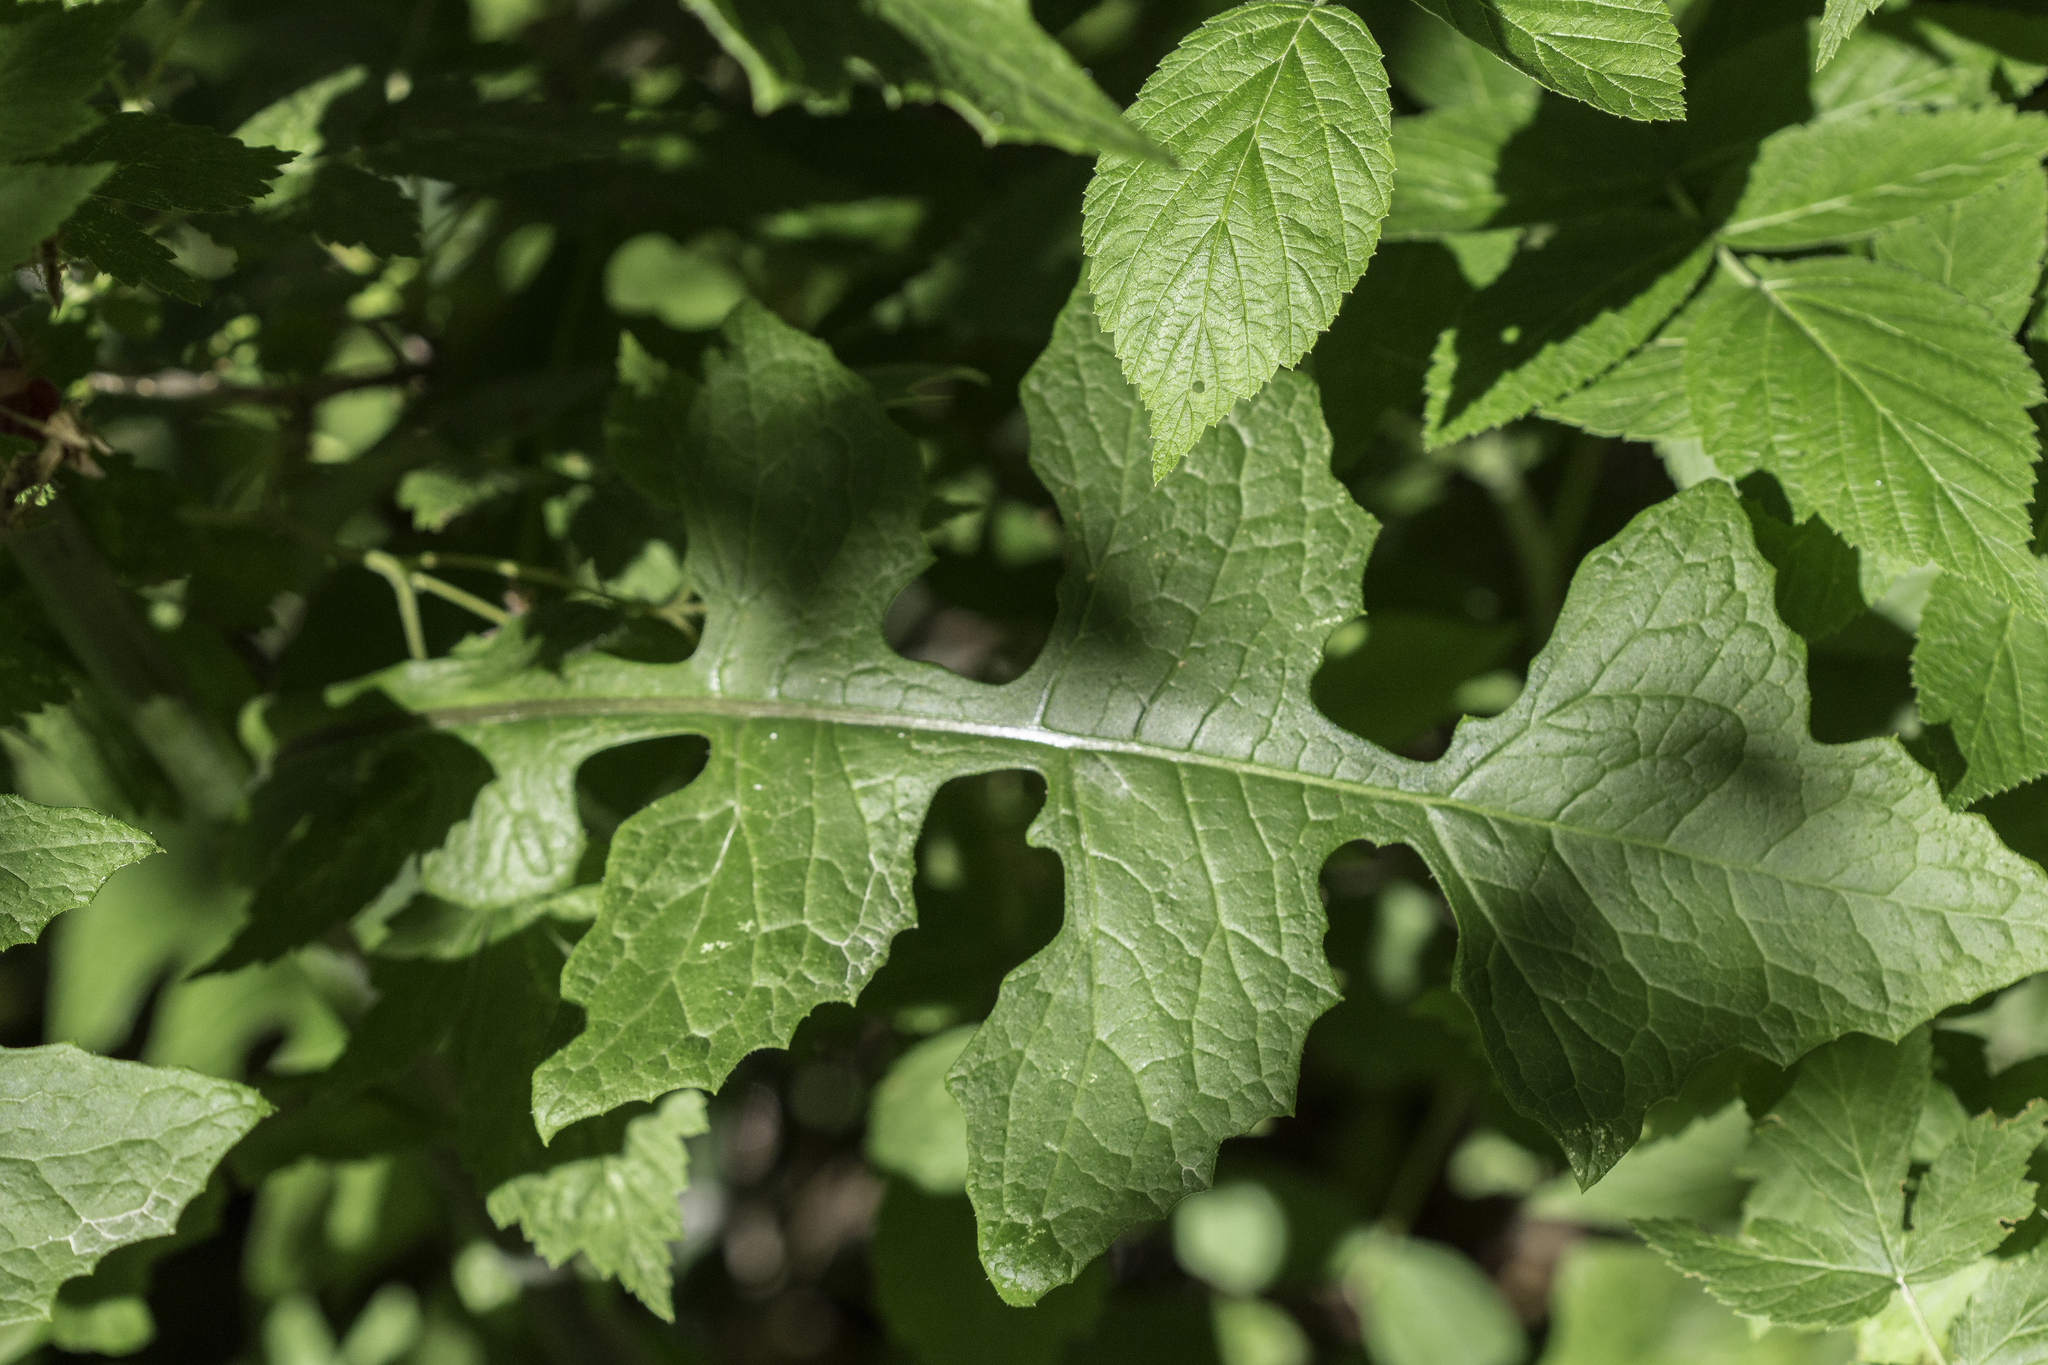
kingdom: Plantae
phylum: Tracheophyta
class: Magnoliopsida
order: Asterales
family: Asteraceae
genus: Lactuca
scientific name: Lactuca biennis
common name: Blue wood lettuce
